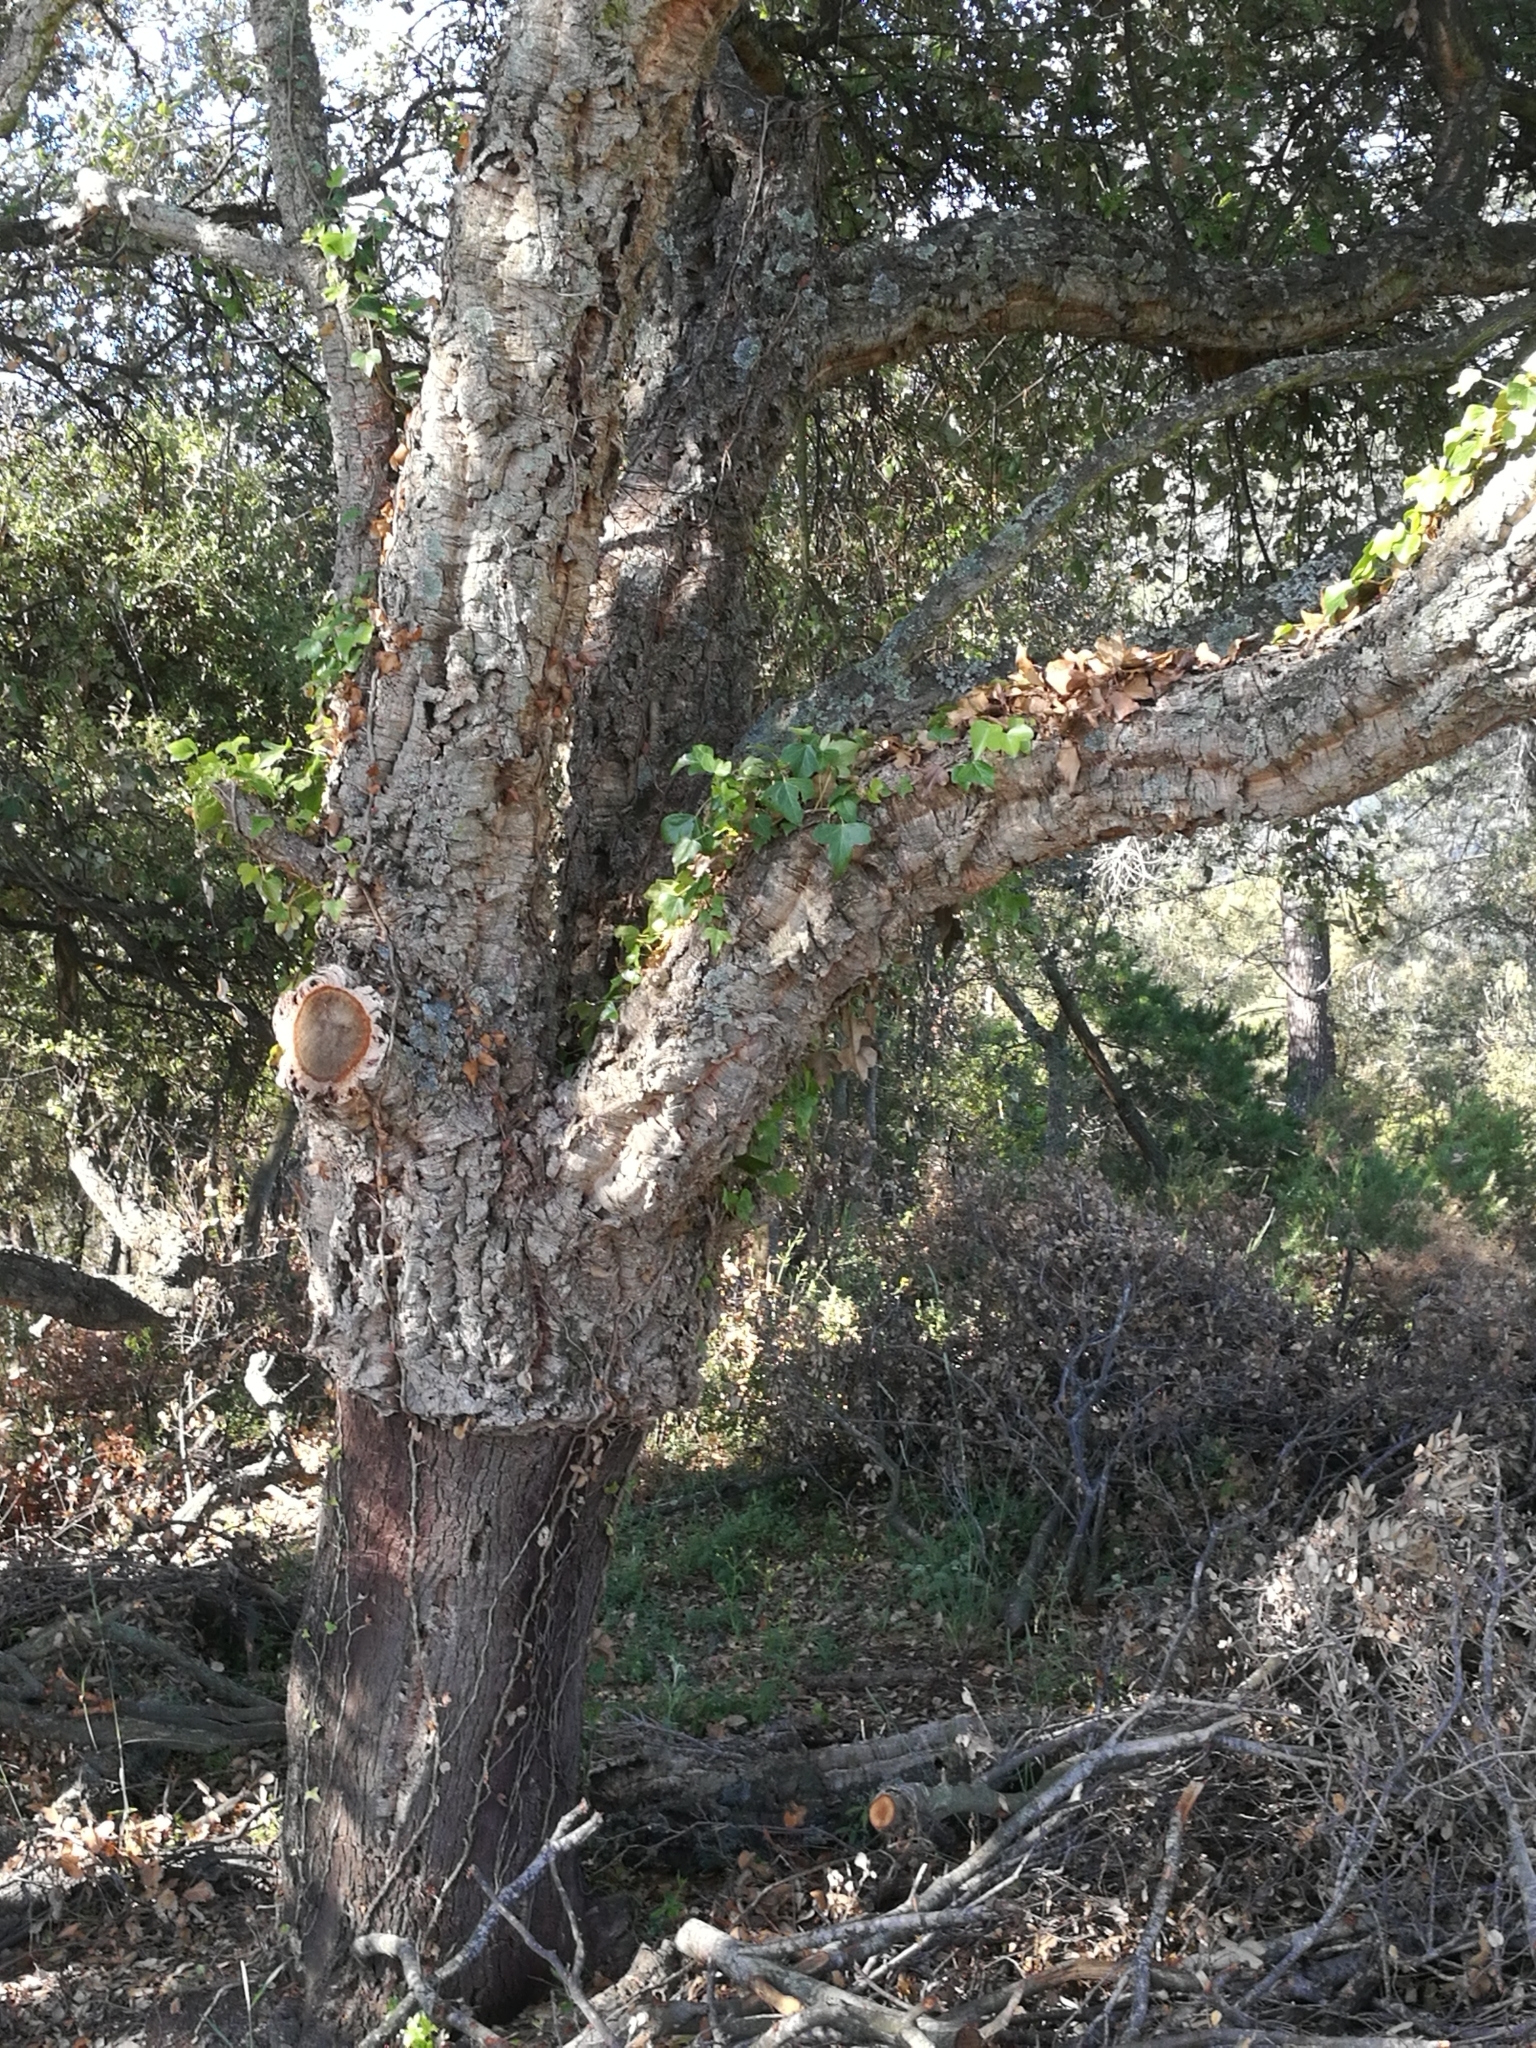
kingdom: Plantae
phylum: Tracheophyta
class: Magnoliopsida
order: Fagales
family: Fagaceae
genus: Quercus
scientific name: Quercus suber
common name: Cork oak
